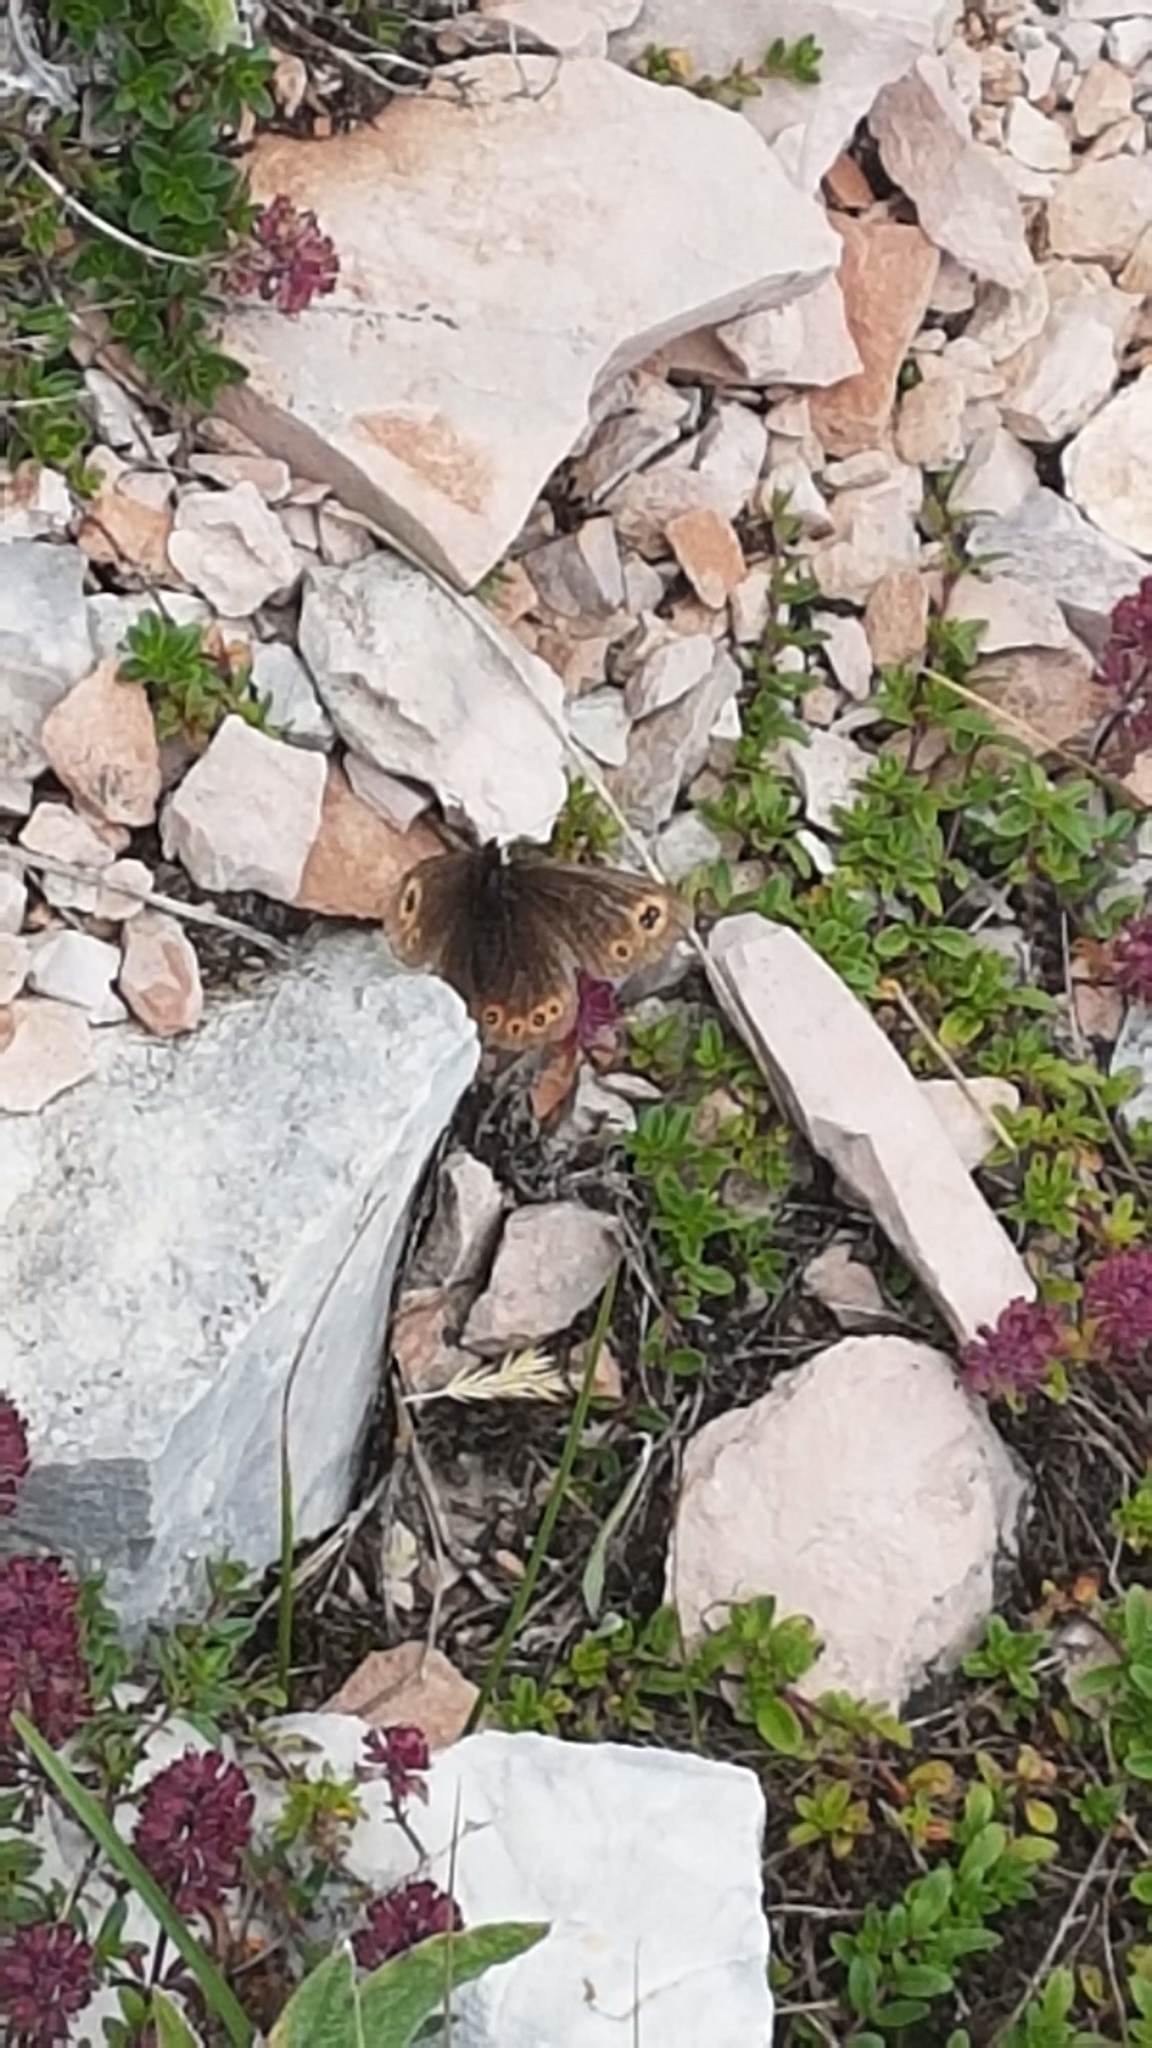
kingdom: Animalia
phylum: Arthropoda
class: Insecta
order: Lepidoptera
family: Nymphalidae
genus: Erebia
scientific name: Erebia medusa
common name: Woodland ringlet
